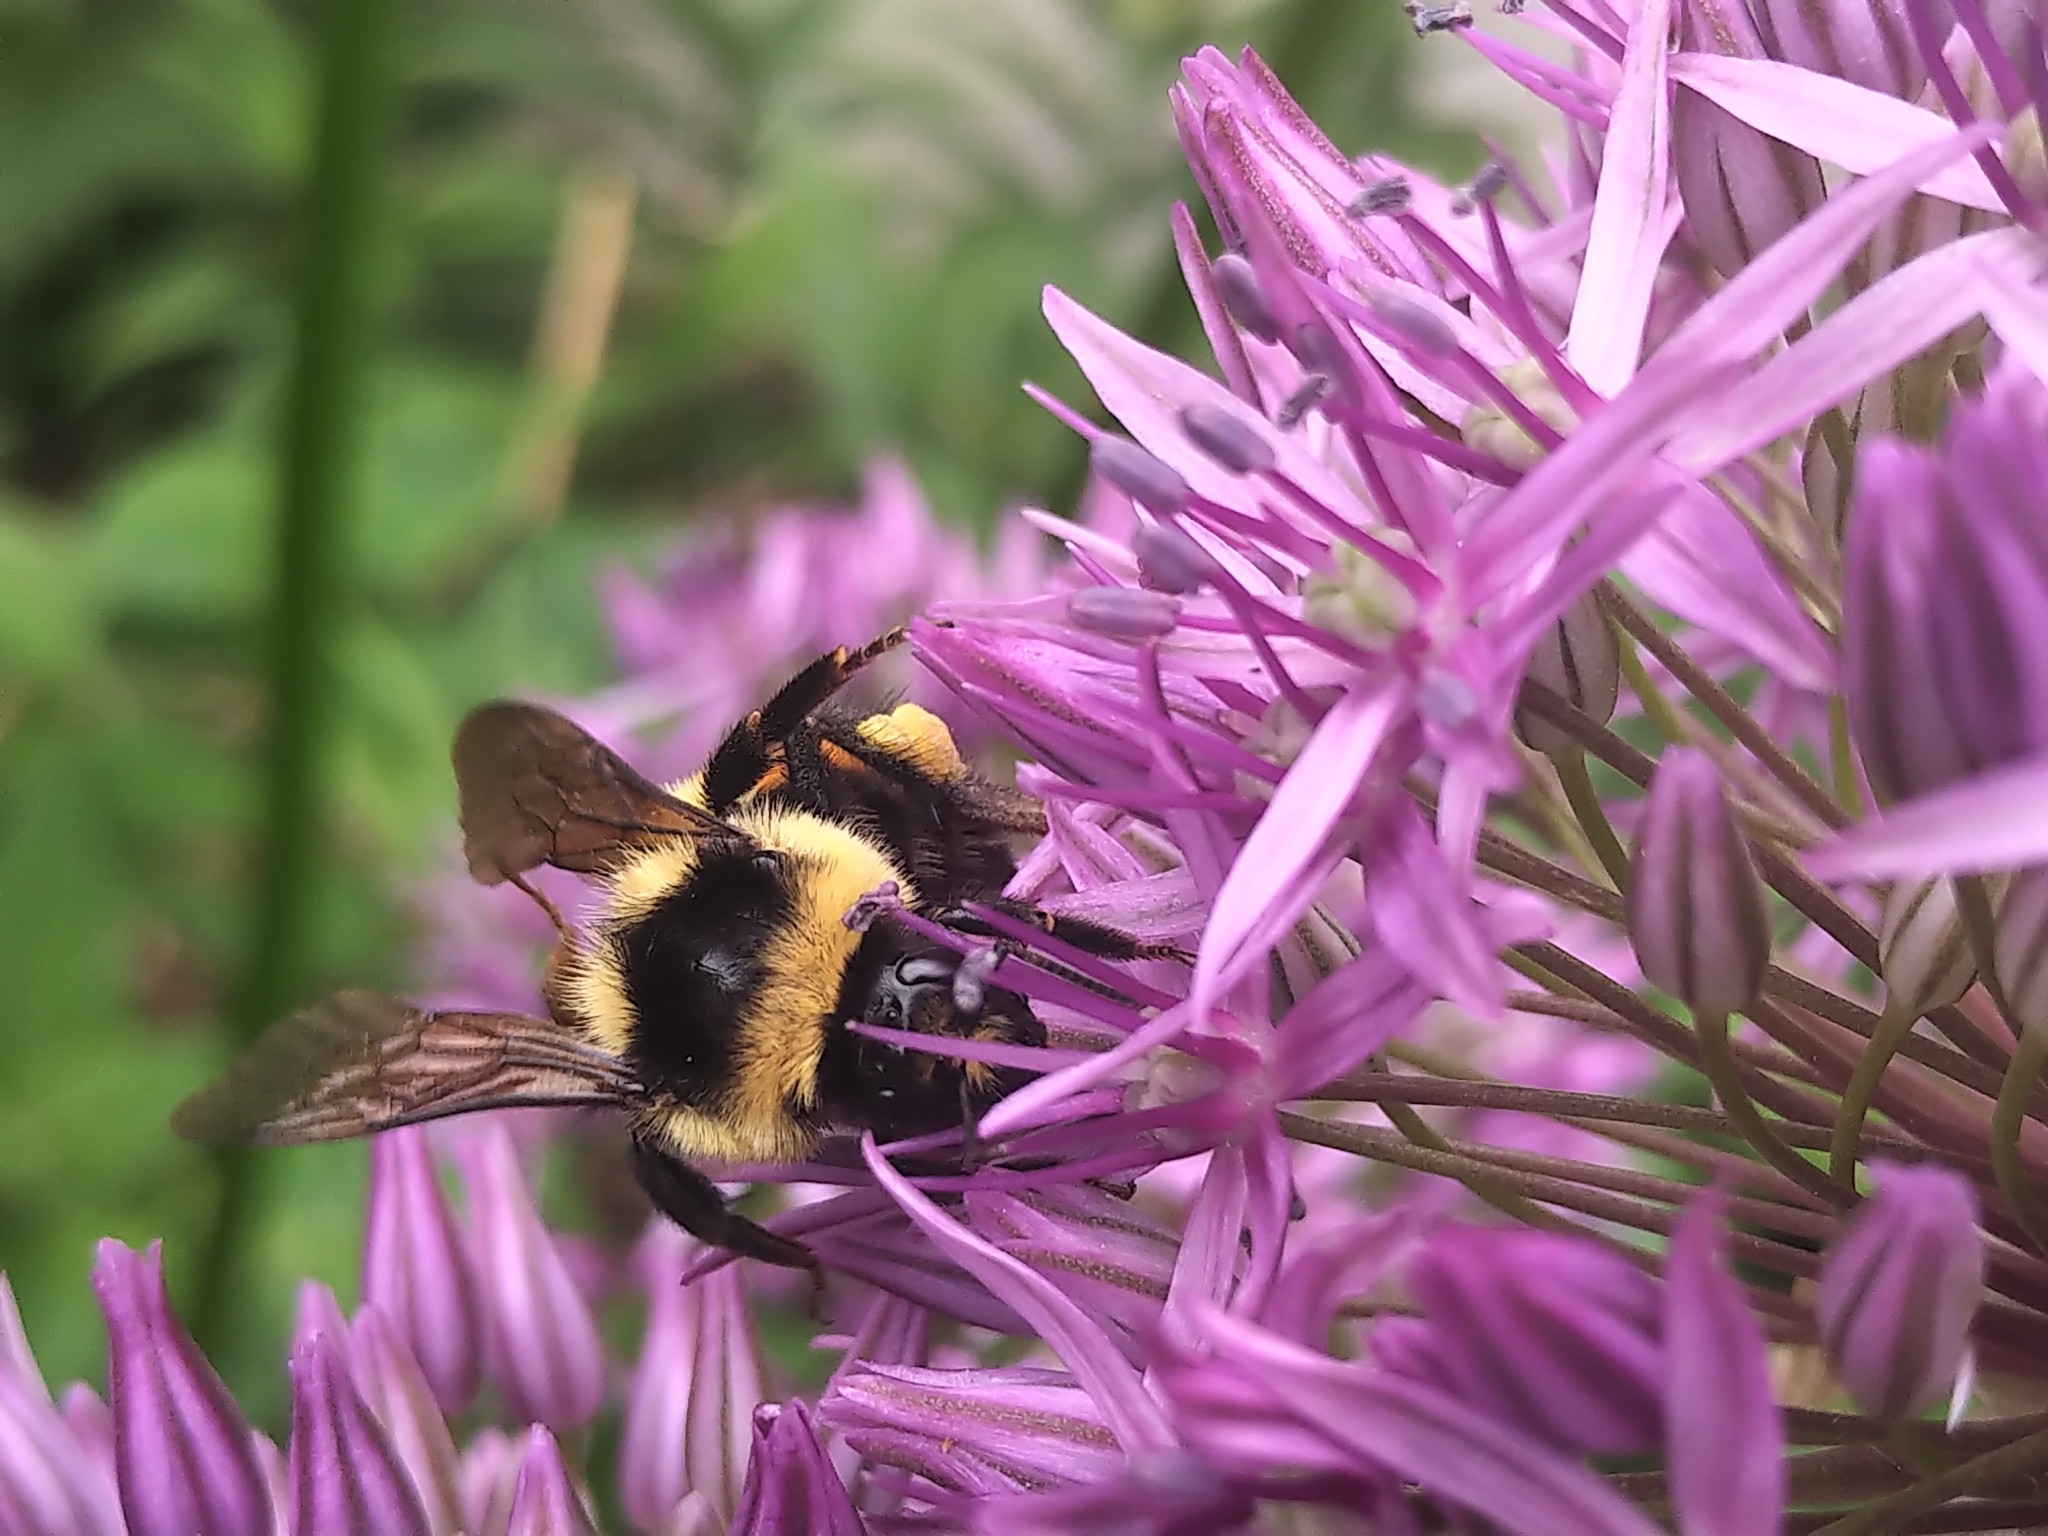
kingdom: Animalia
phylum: Arthropoda
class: Insecta
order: Hymenoptera
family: Apidae
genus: Bombus
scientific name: Bombus ternarius
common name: Tri-colored bumble bee
